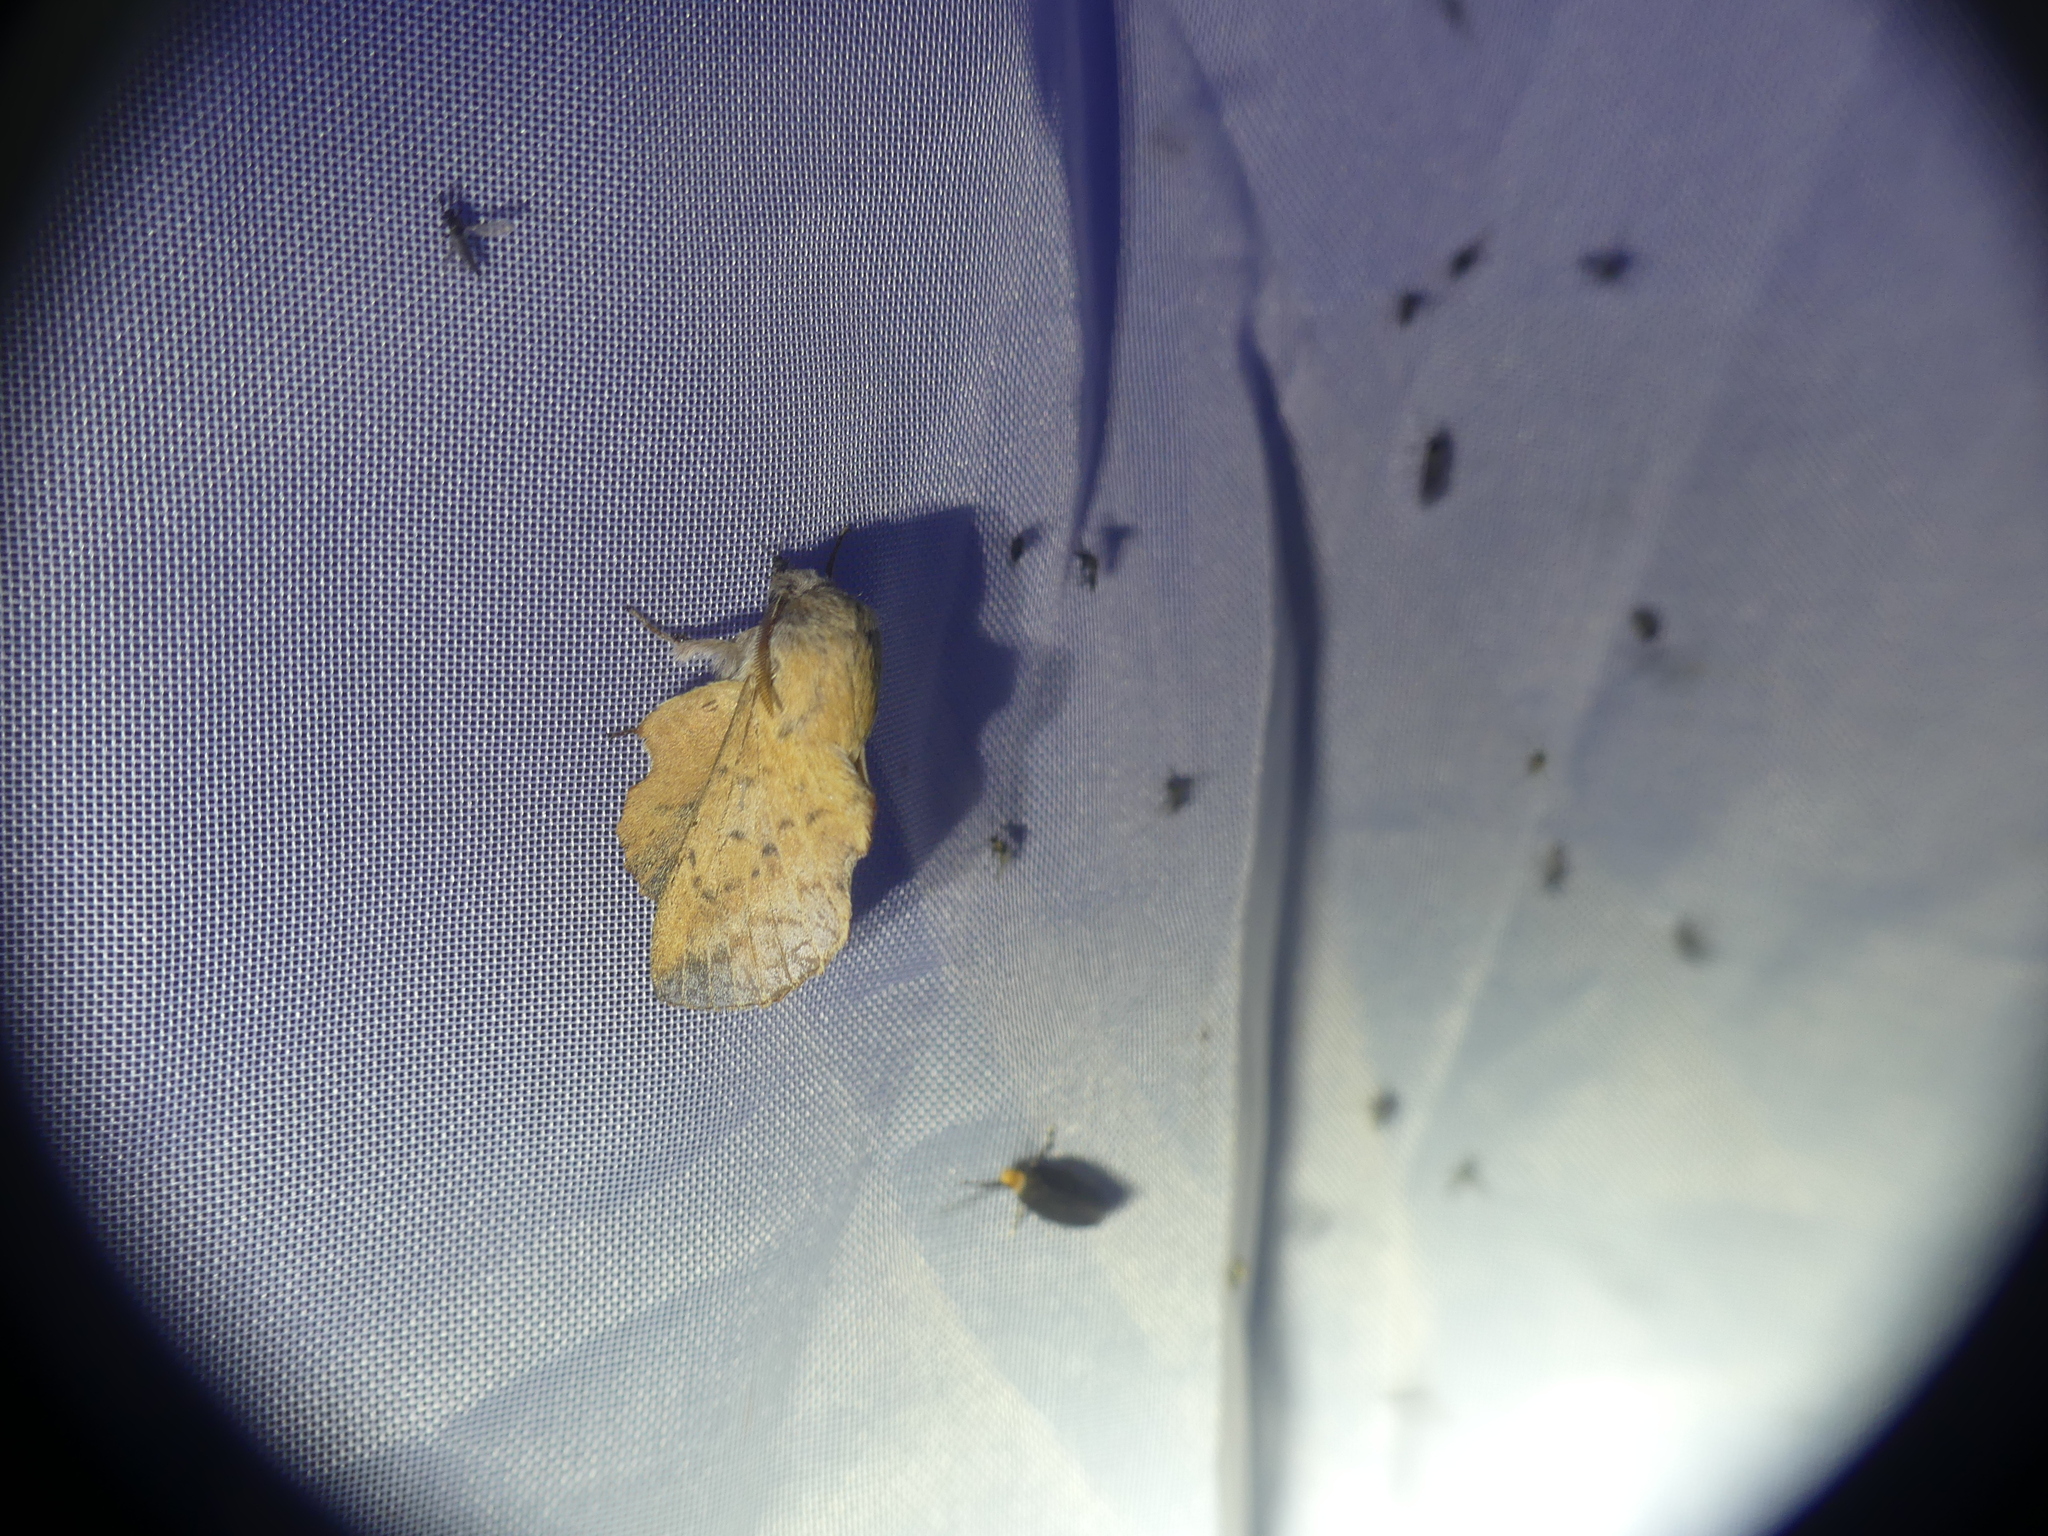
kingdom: Animalia
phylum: Arthropoda
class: Insecta
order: Lepidoptera
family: Lasiocampidae
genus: Phyllodesma
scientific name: Phyllodesma tremulifolia
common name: Aspen lappet
